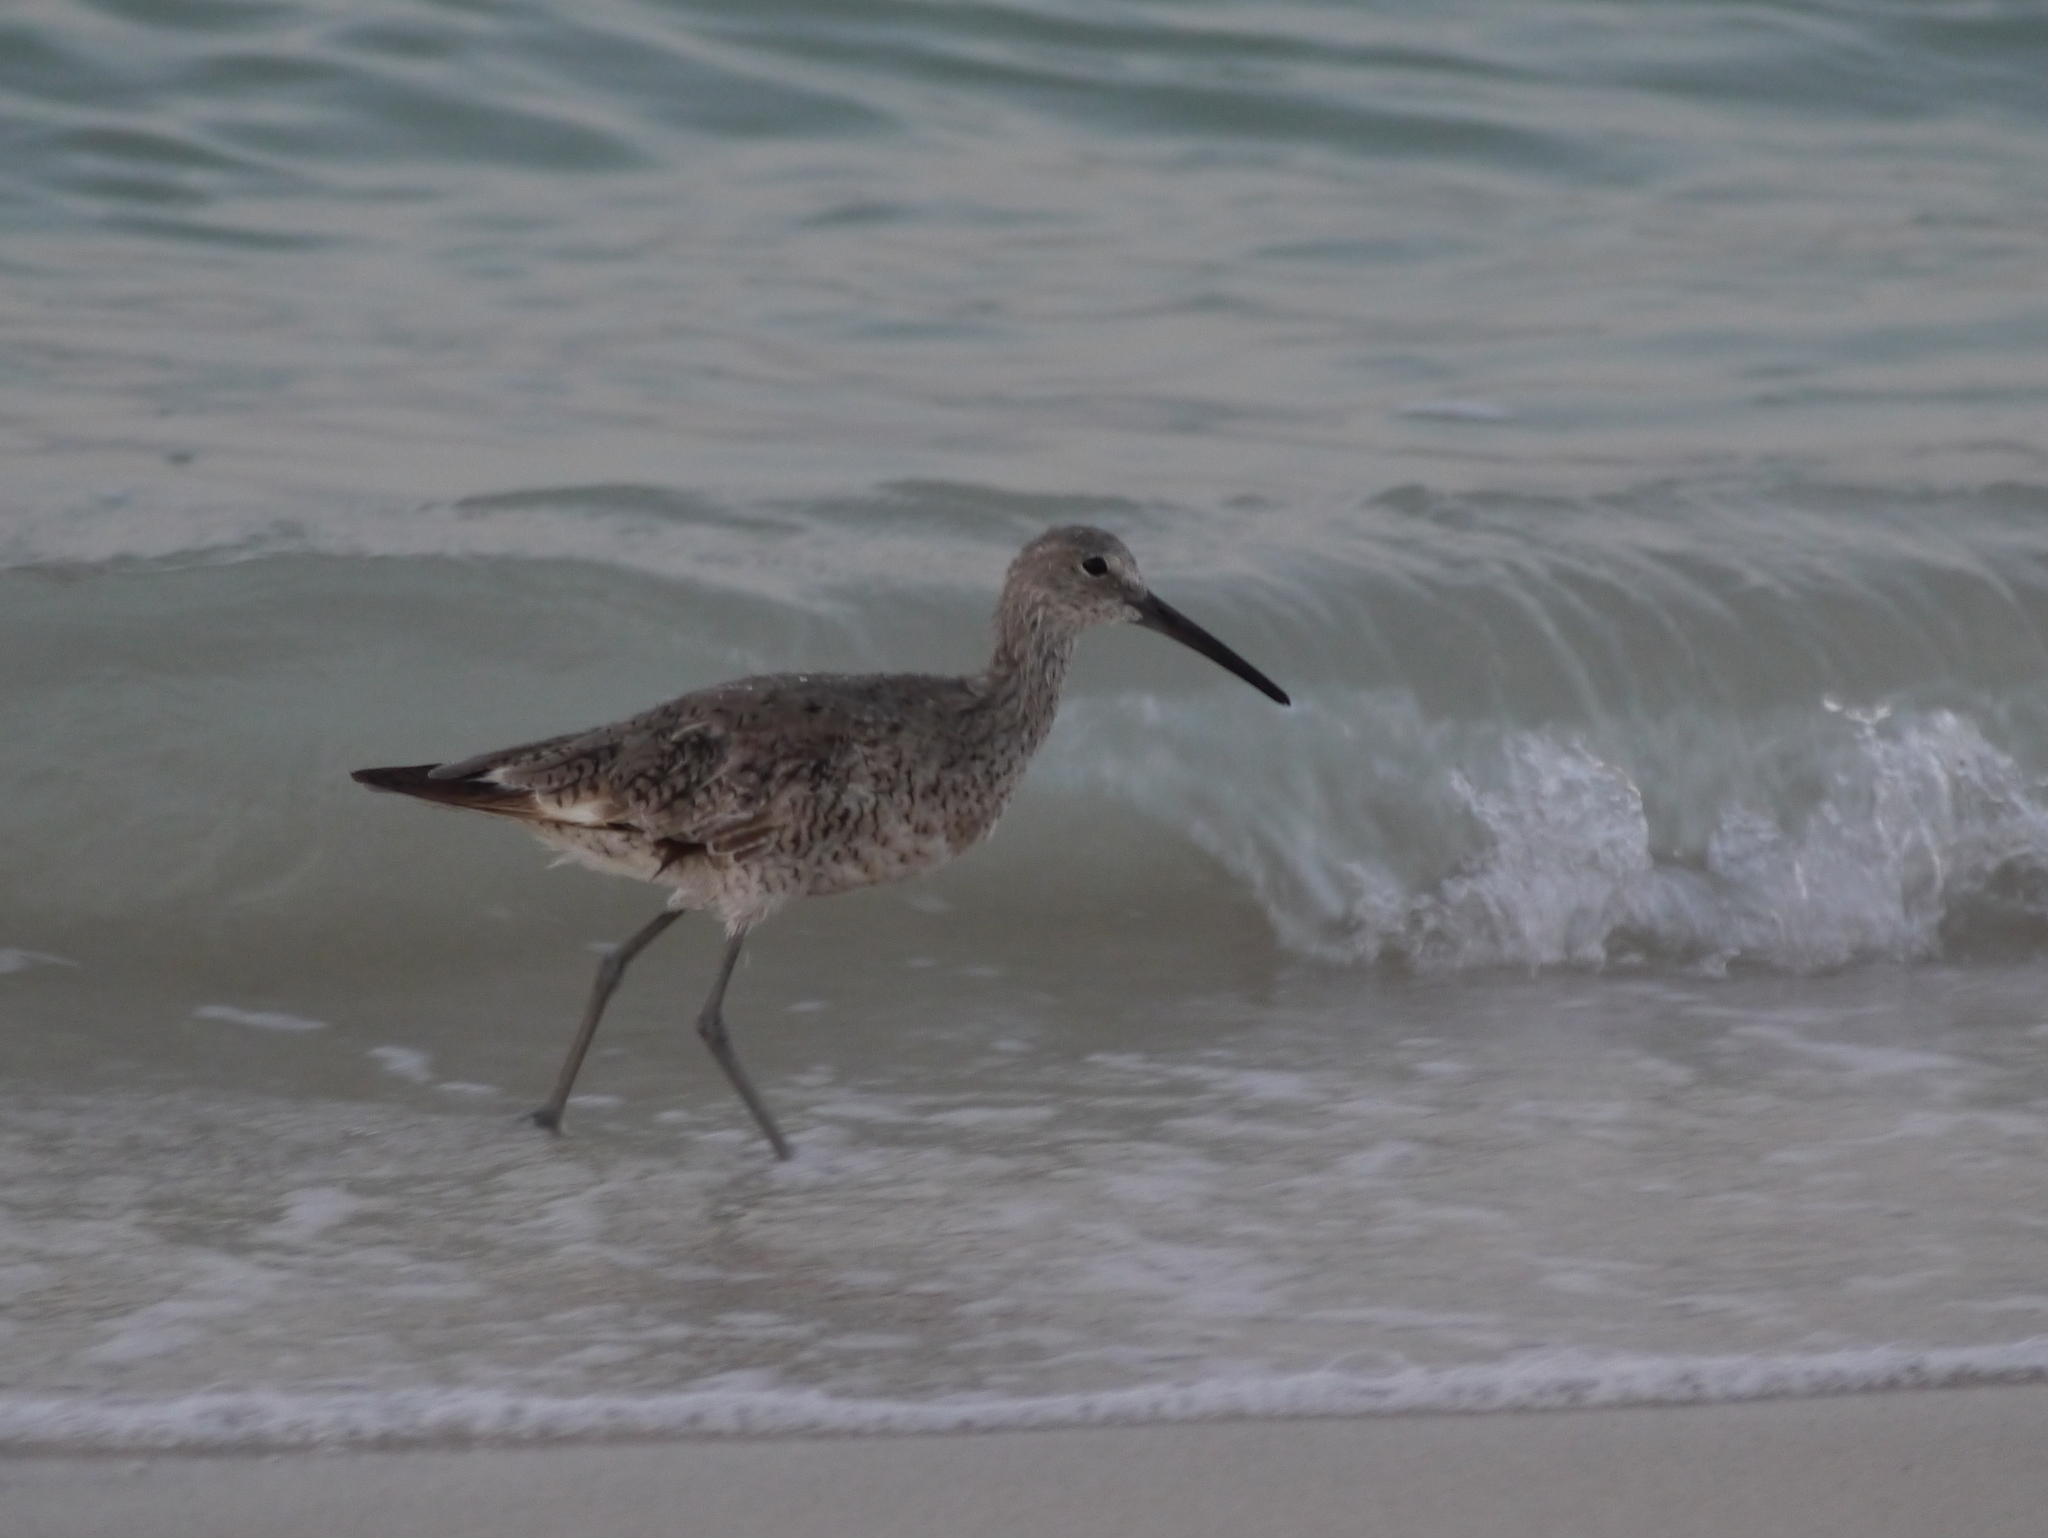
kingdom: Animalia
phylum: Chordata
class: Aves
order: Charadriiformes
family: Scolopacidae
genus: Tringa
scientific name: Tringa semipalmata
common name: Willet
